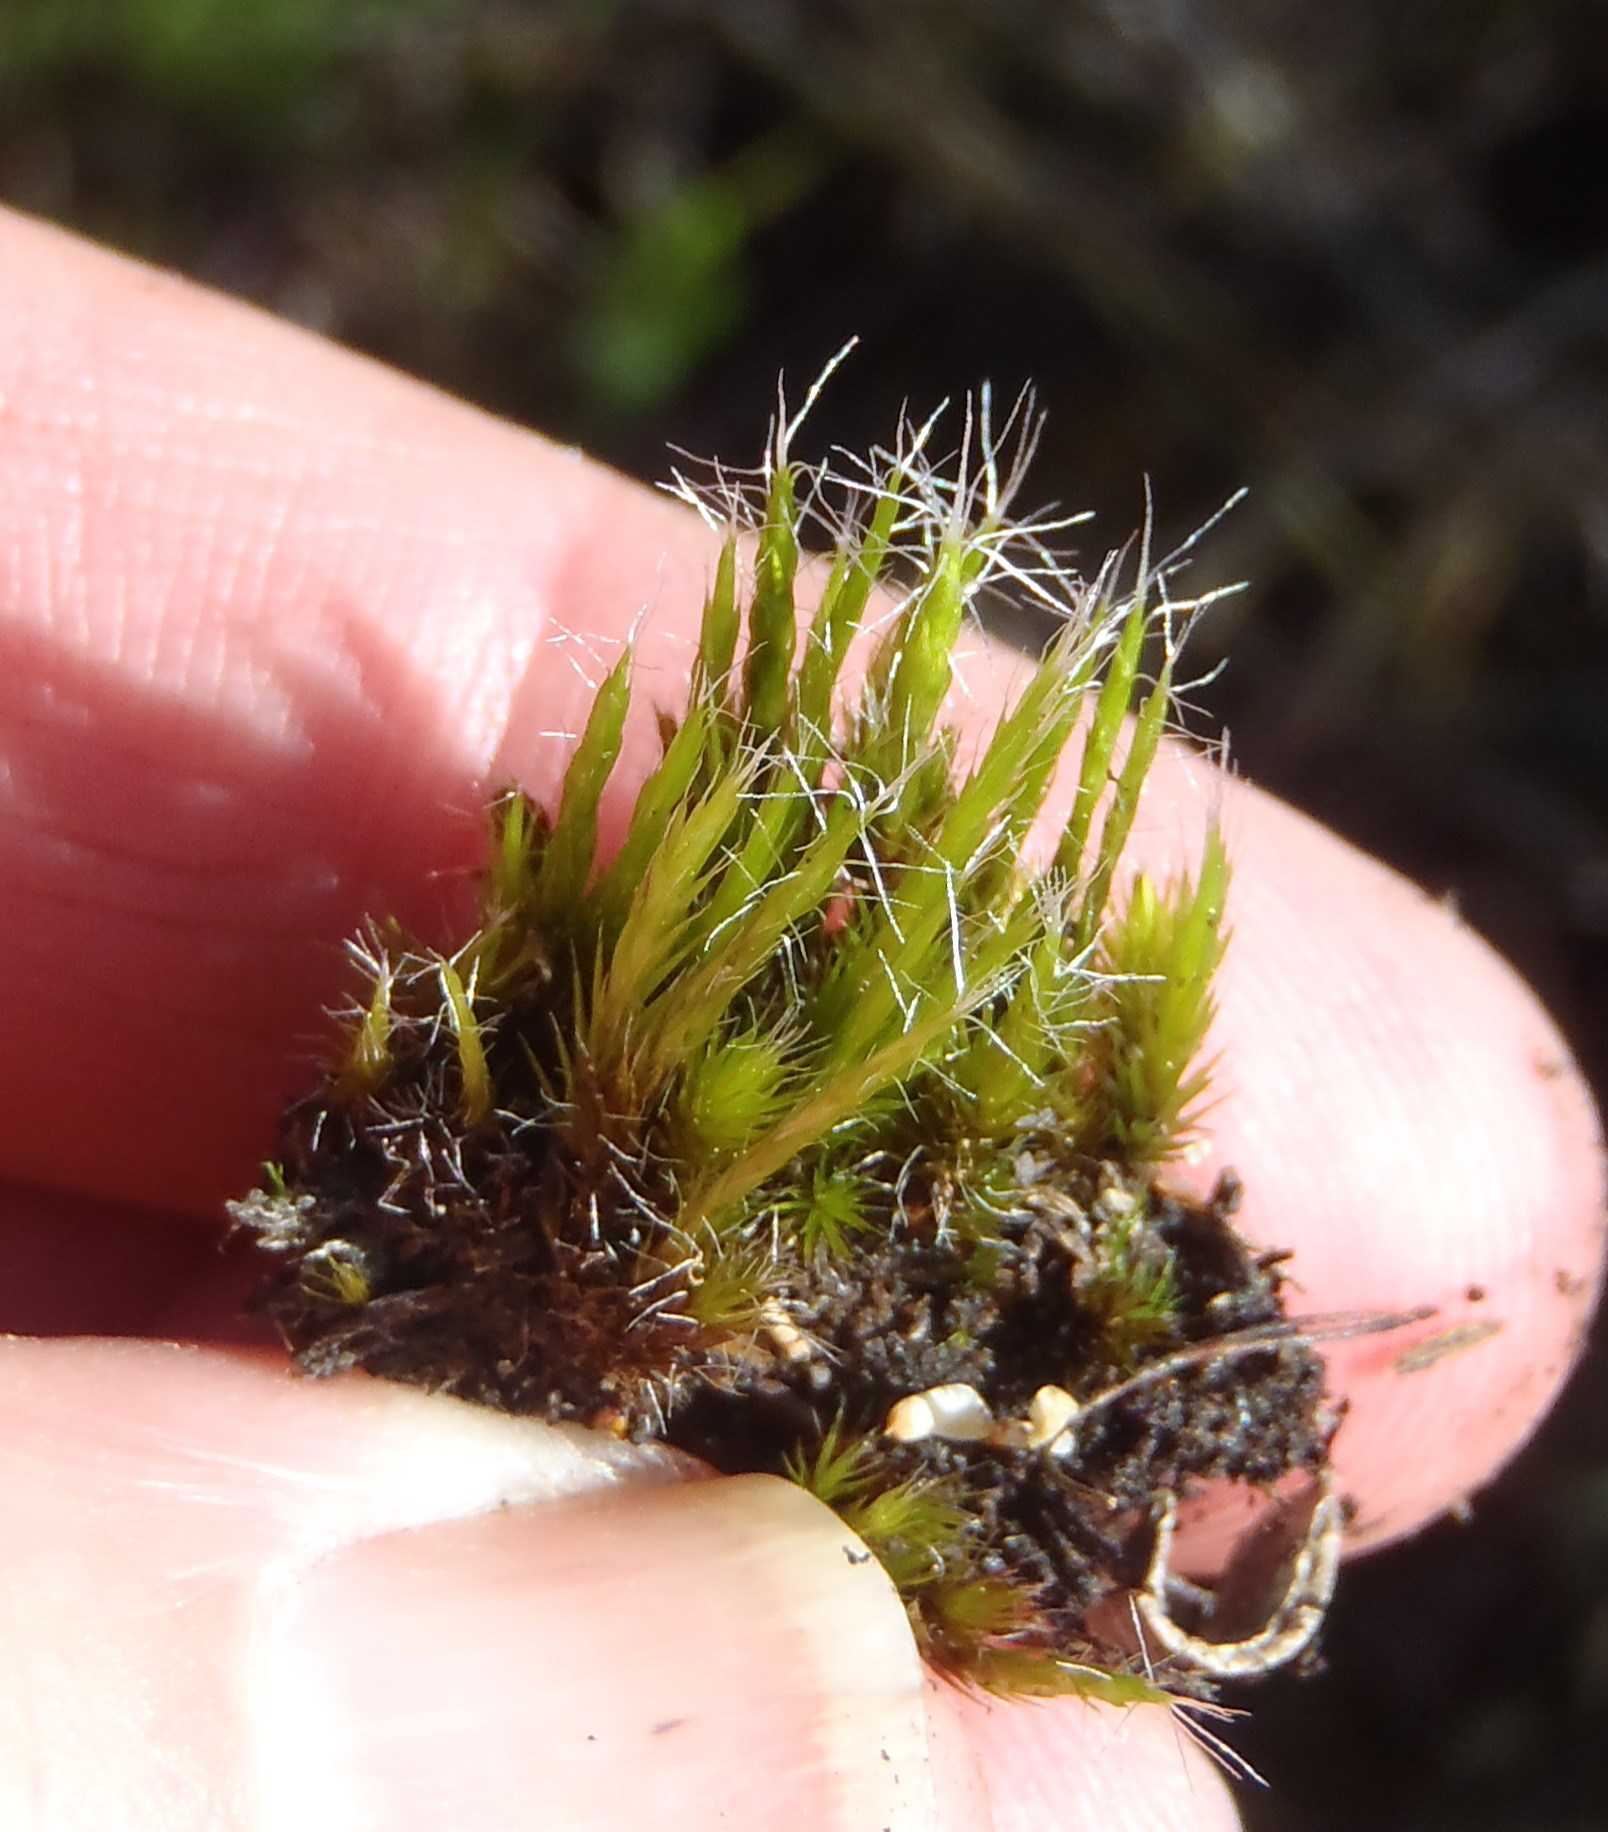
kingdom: Plantae
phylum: Bryophyta
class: Bryopsida
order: Dicranales
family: Leucobryaceae
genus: Campylopus
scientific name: Campylopus introflexus
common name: Heath star moss
